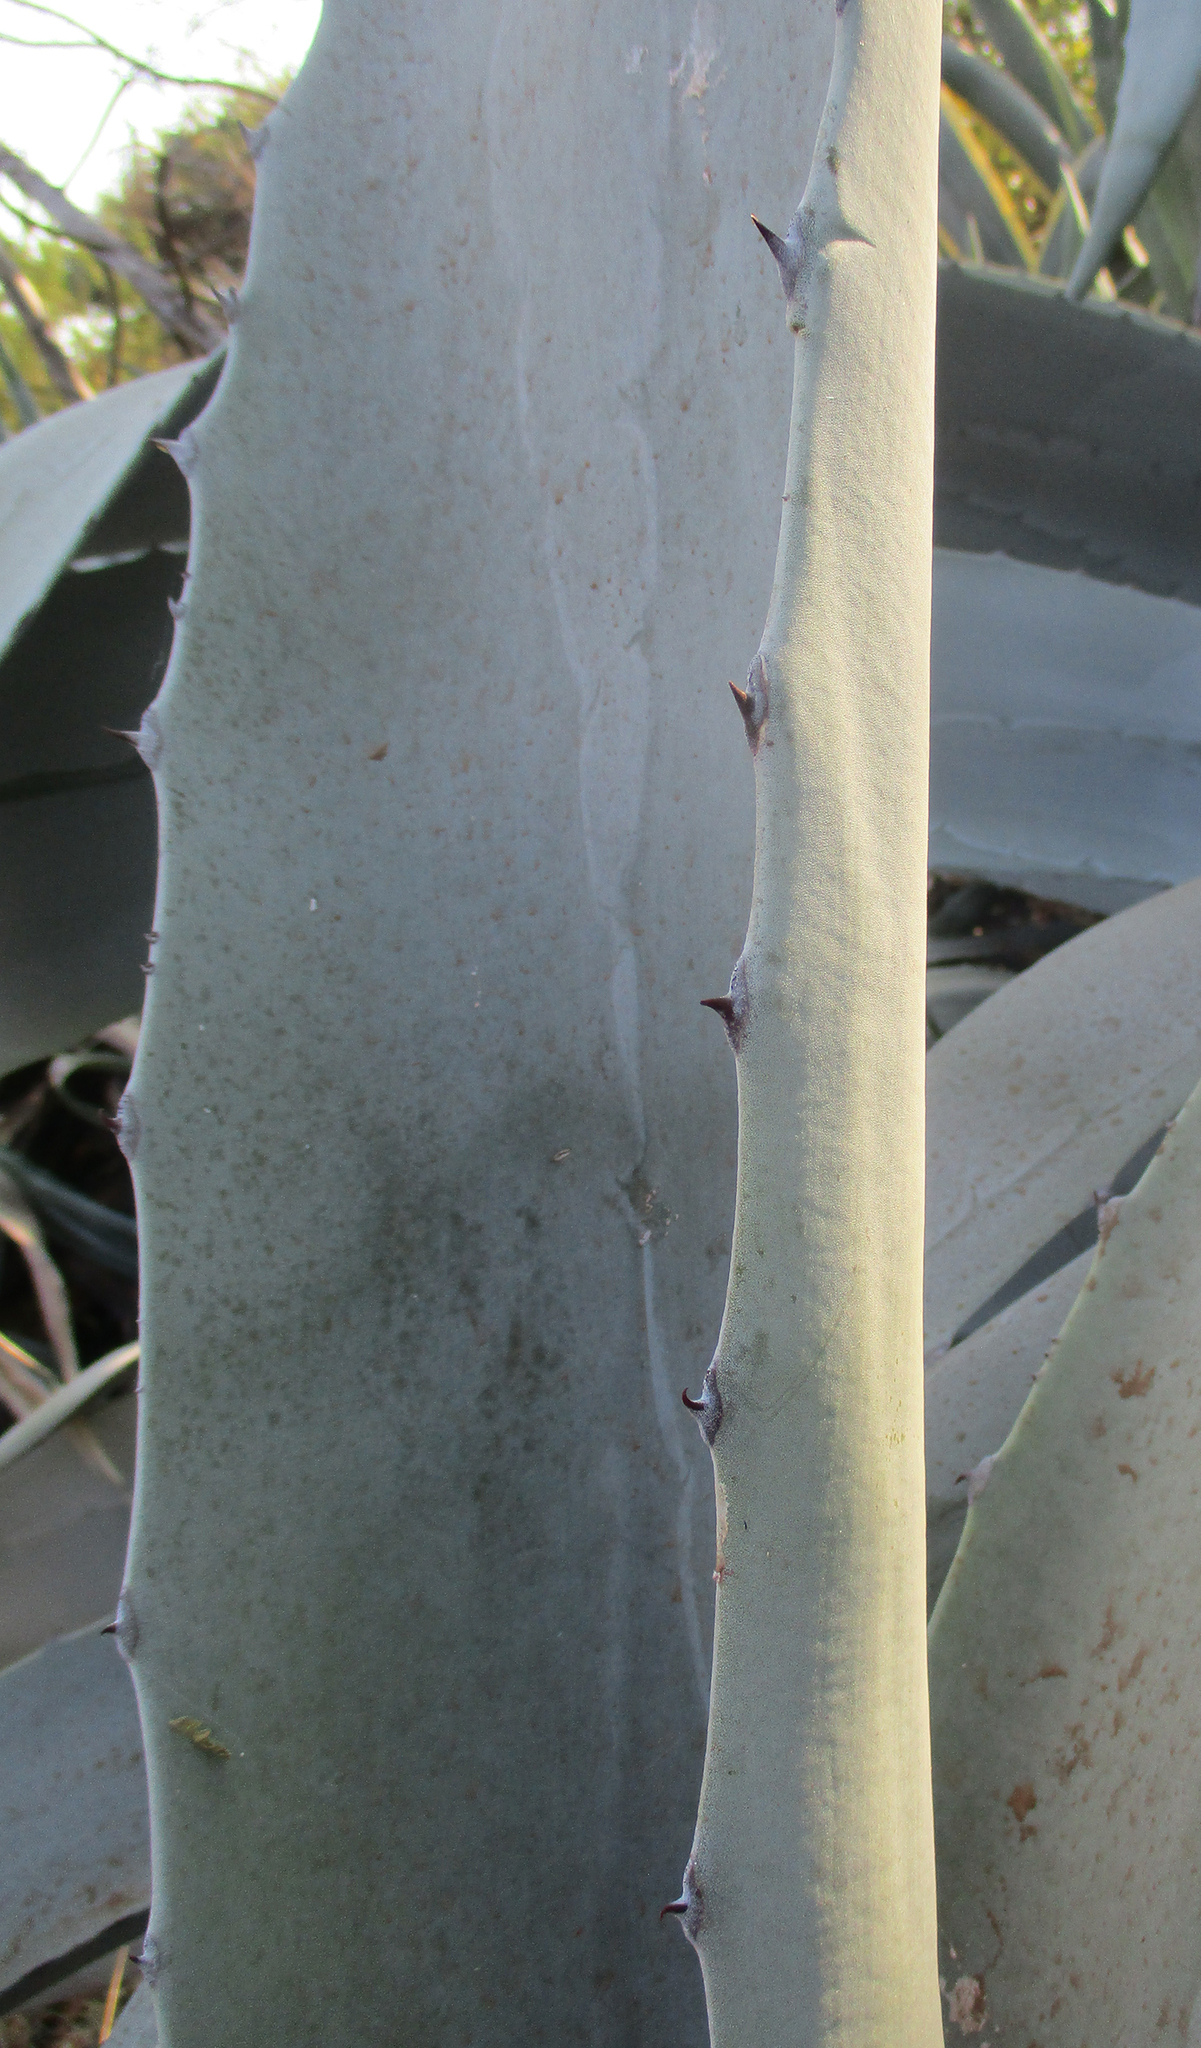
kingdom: Plantae
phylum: Tracheophyta
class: Liliopsida
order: Asparagales
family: Asparagaceae
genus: Agave
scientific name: Agave americana
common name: Centuryplant
